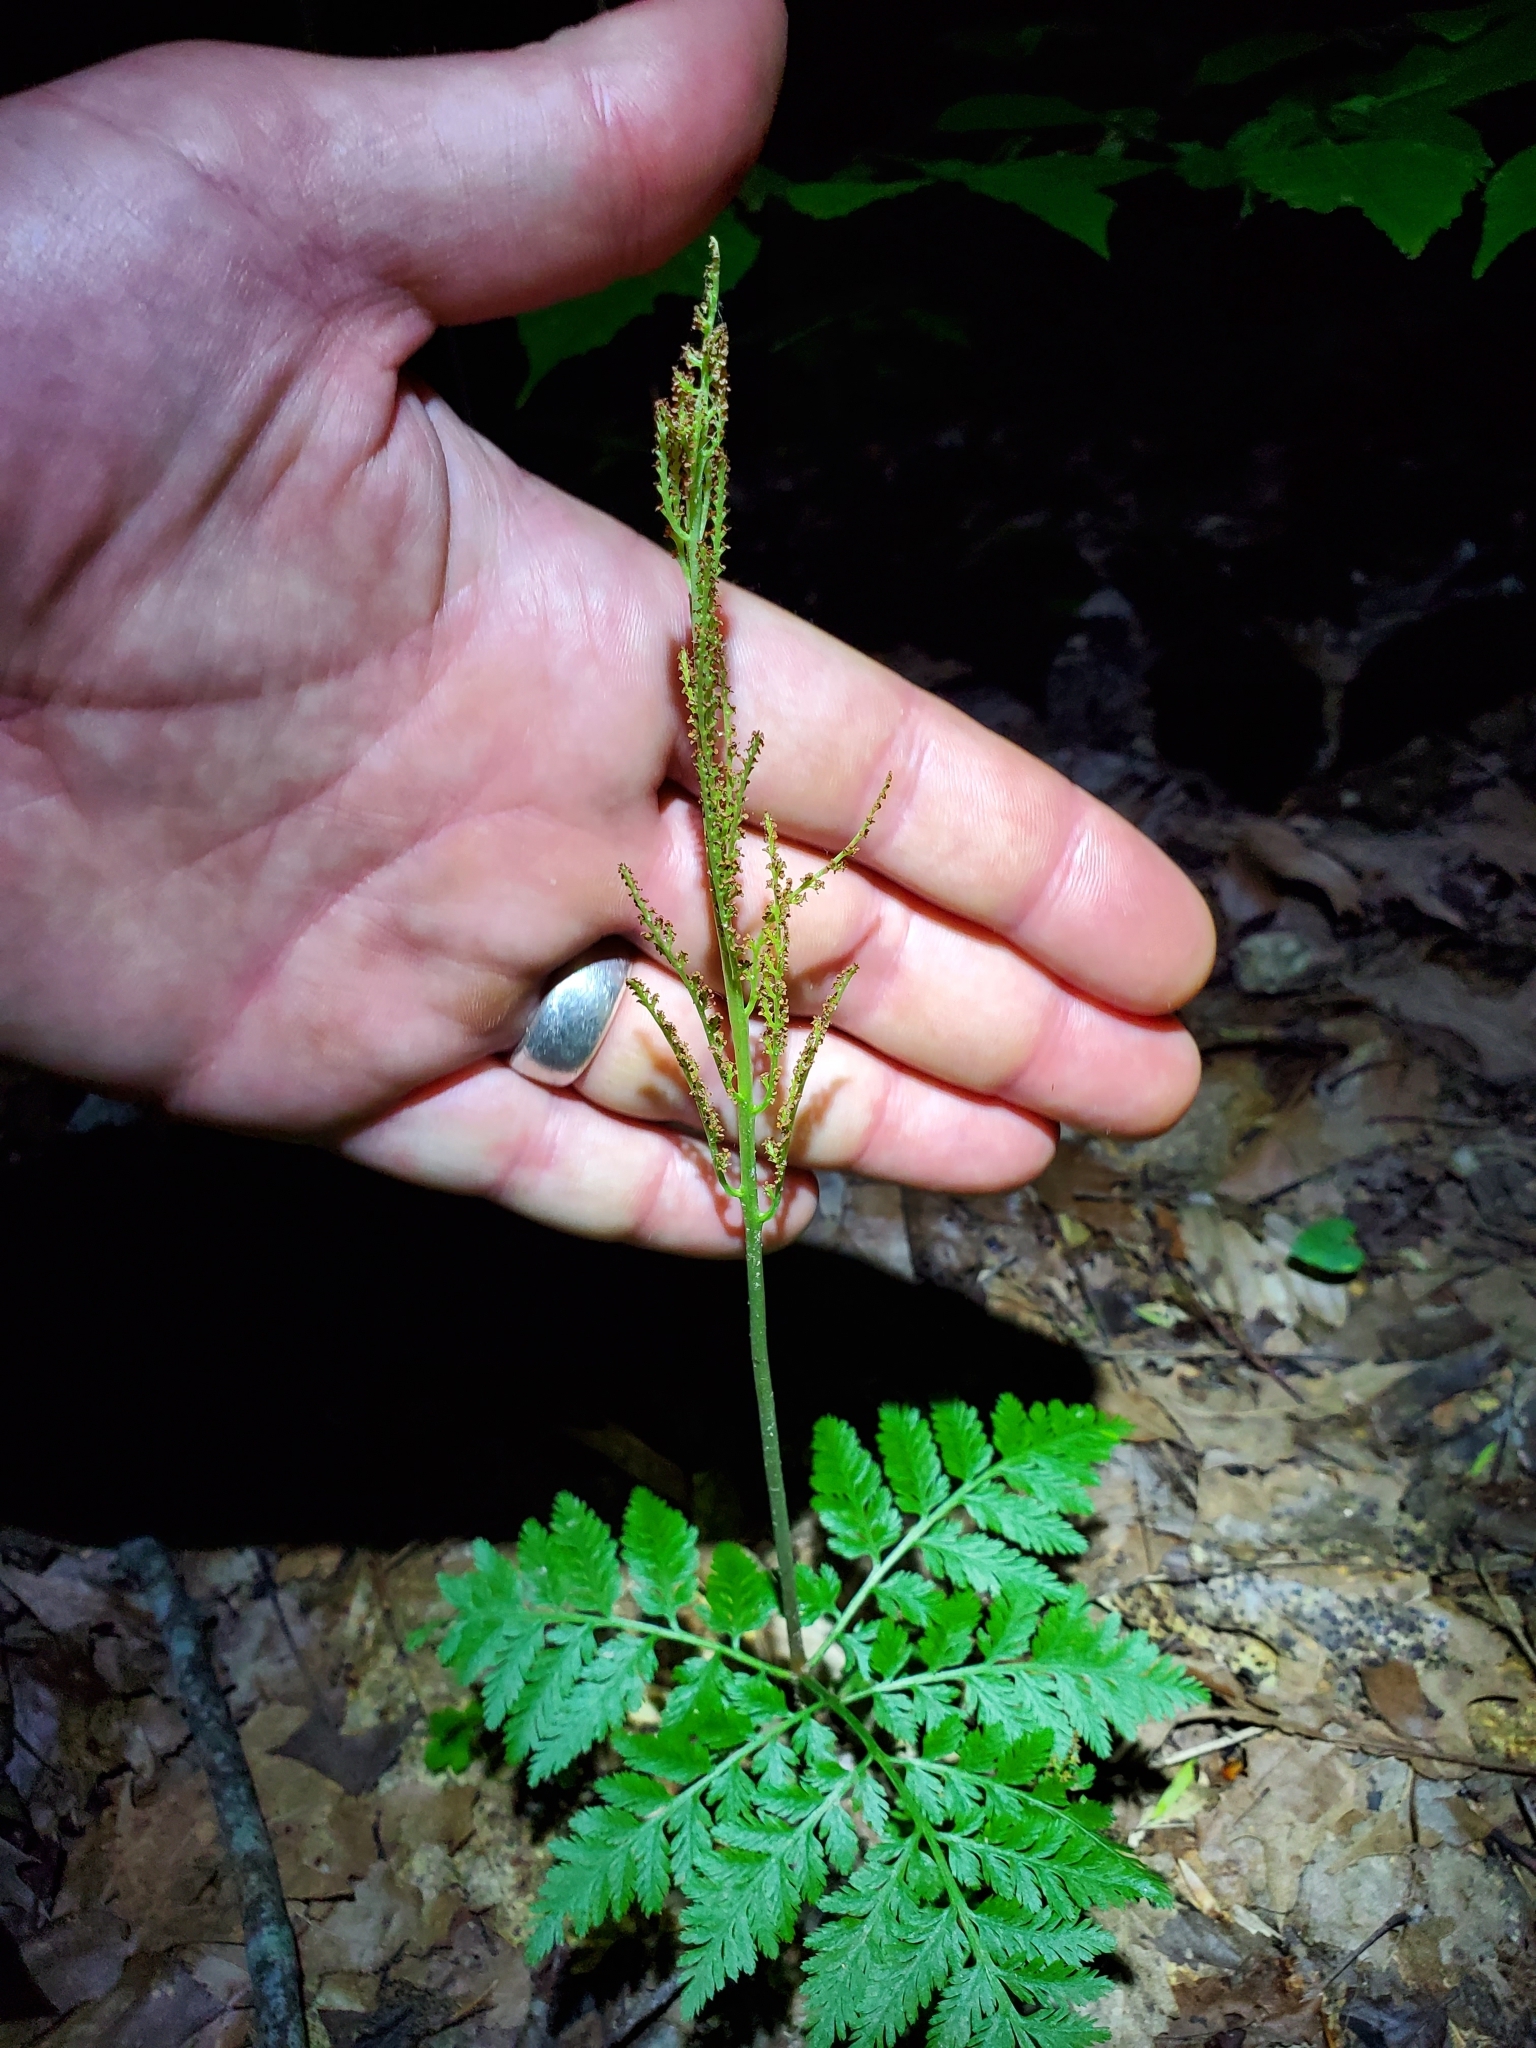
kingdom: Plantae
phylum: Tracheophyta
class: Polypodiopsida
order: Ophioglossales
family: Ophioglossaceae
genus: Botrypus
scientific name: Botrypus virginianus
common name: Common grapefern
